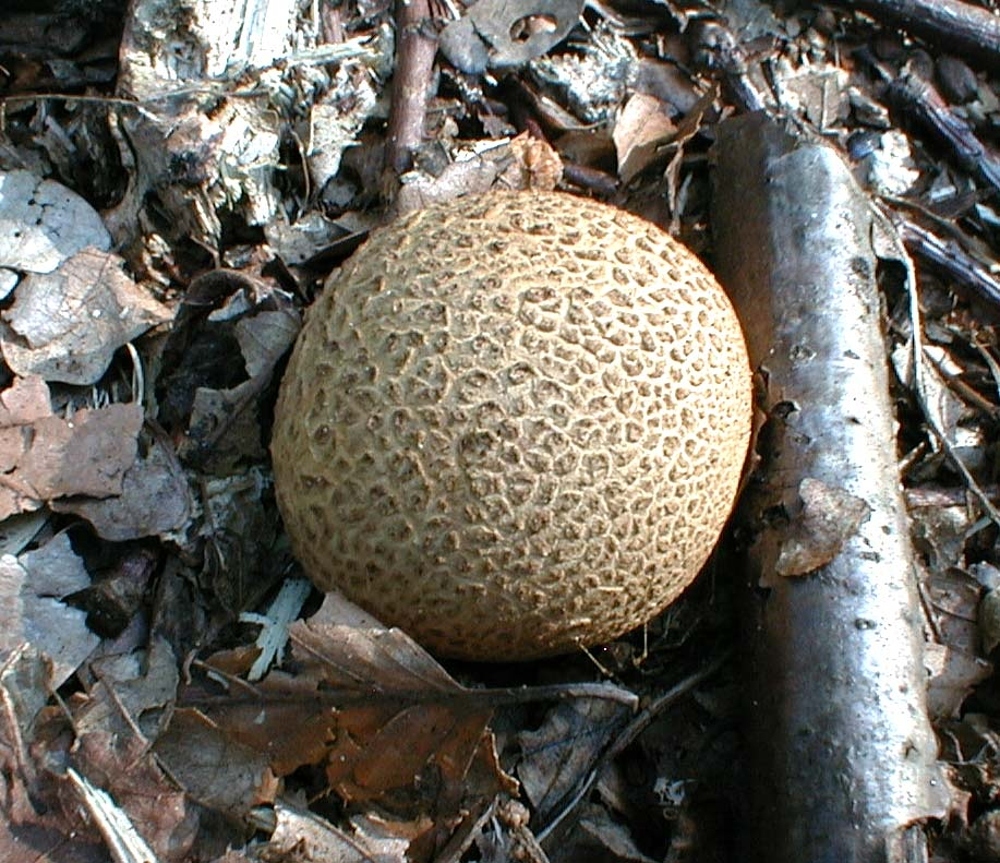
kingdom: Fungi
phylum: Basidiomycota
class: Agaricomycetes
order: Boletales
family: Sclerodermataceae
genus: Scleroderma
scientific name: Scleroderma citrinum
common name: Common earthball
